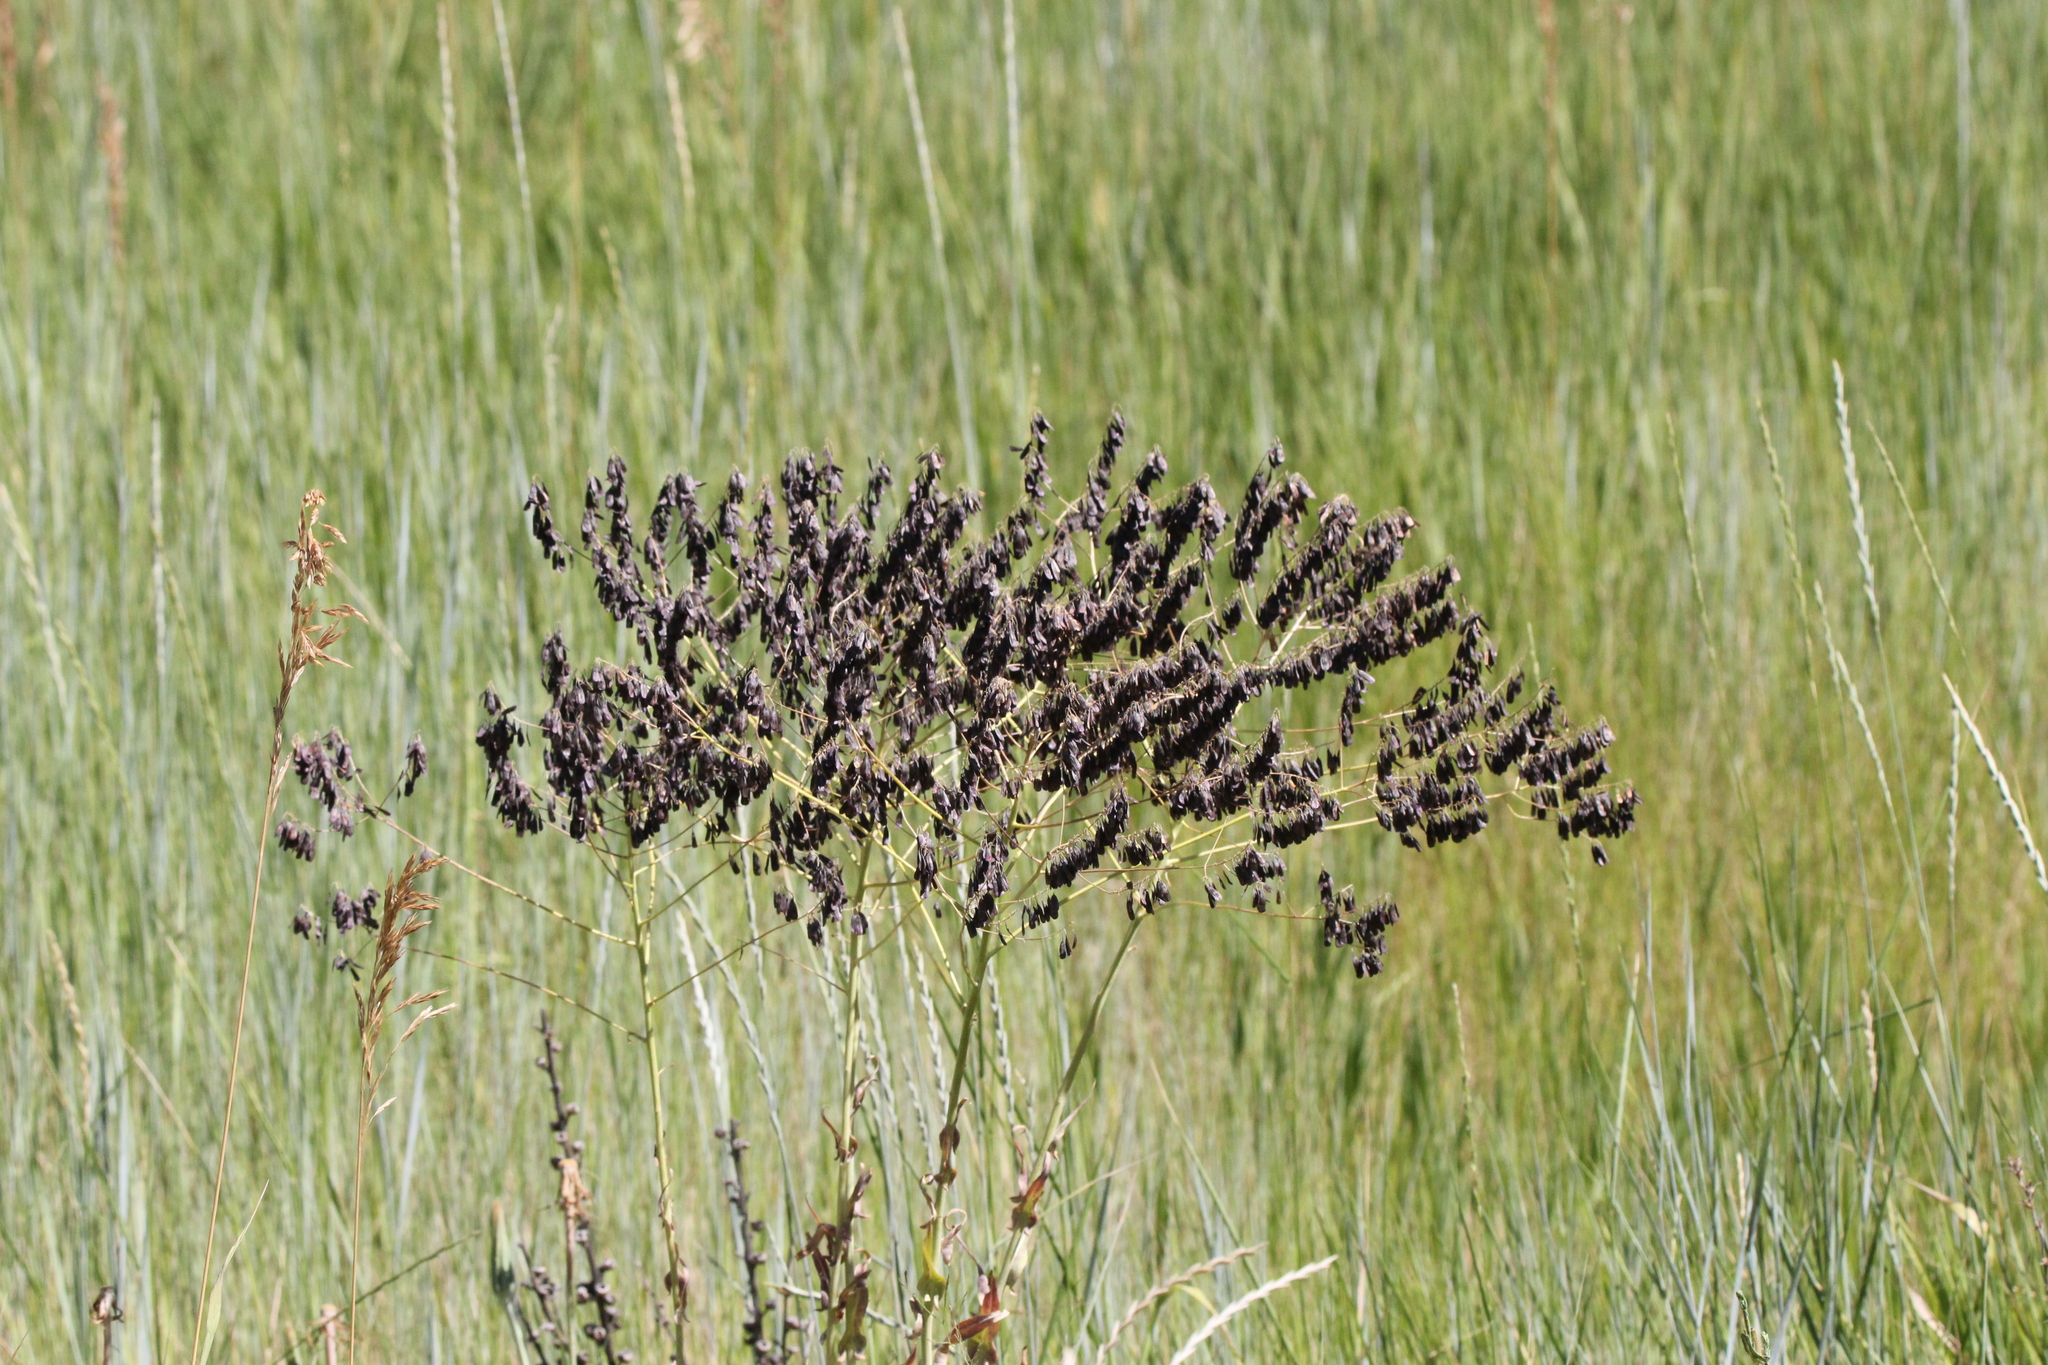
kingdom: Plantae
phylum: Tracheophyta
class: Magnoliopsida
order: Brassicales
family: Brassicaceae
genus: Isatis
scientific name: Isatis tinctoria
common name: Woad
